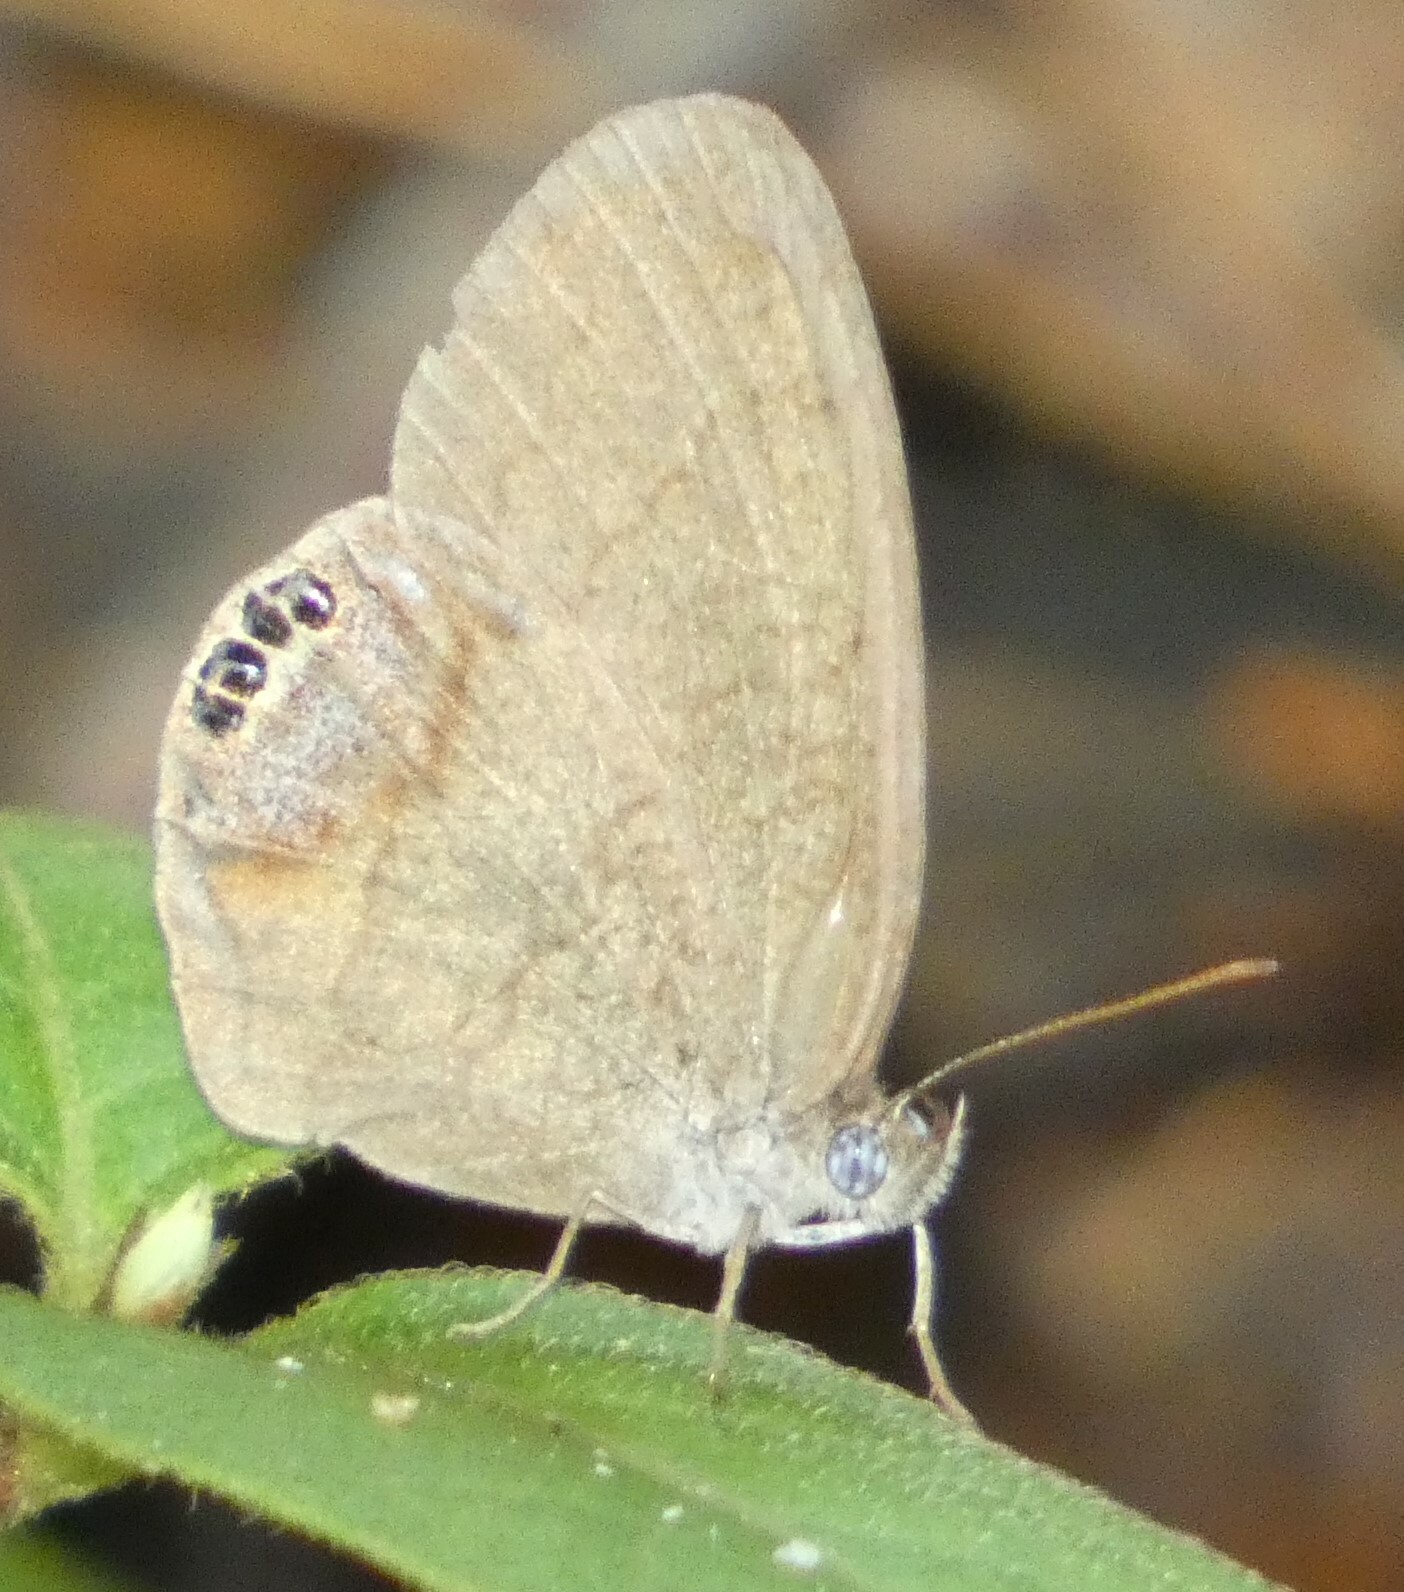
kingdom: Animalia
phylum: Arthropoda
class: Insecta
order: Lepidoptera
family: Nymphalidae
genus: Euptychia
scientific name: Euptychia cornelius
